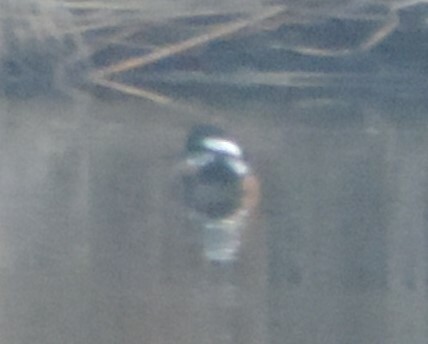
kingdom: Animalia
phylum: Chordata
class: Aves
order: Anseriformes
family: Anatidae
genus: Lophodytes
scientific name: Lophodytes cucullatus
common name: Hooded merganser
